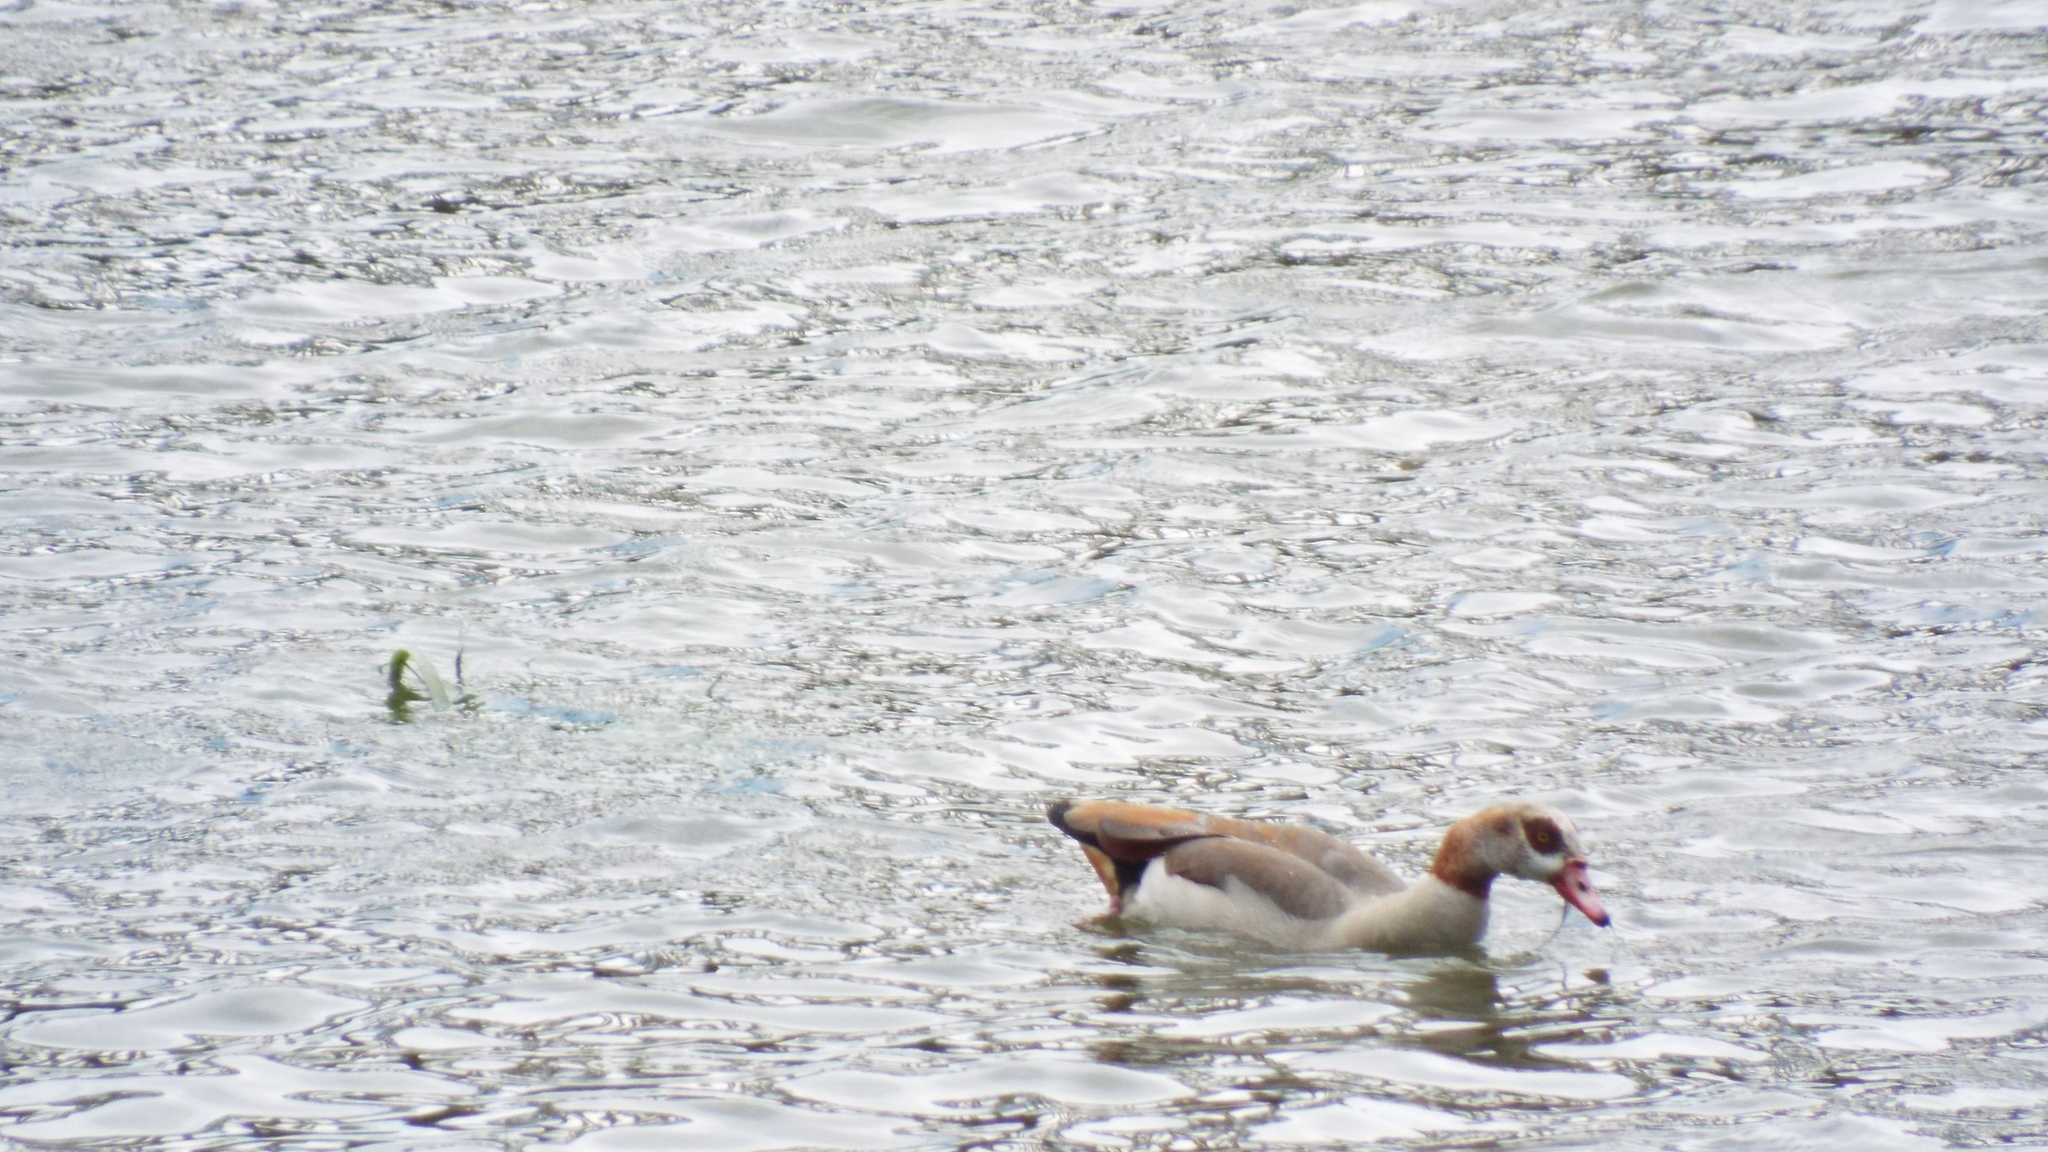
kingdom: Animalia
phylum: Chordata
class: Aves
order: Anseriformes
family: Anatidae
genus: Alopochen
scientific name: Alopochen aegyptiaca
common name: Egyptian goose
